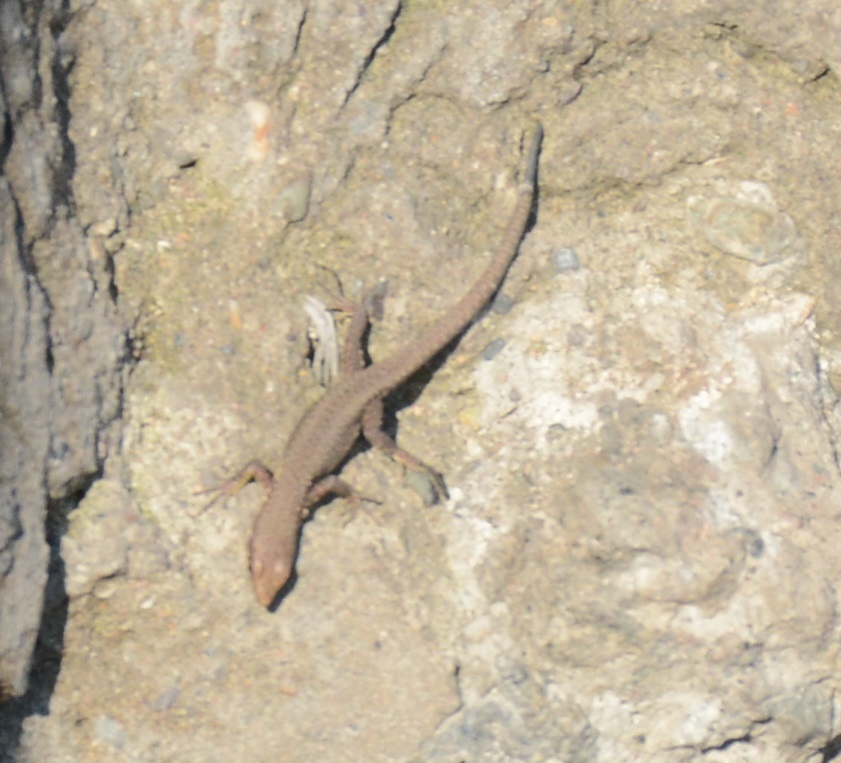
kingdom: Animalia
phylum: Chordata
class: Squamata
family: Lacertidae
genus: Darevskia
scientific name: Darevskia rudis
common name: Spiny-tailed lizard
